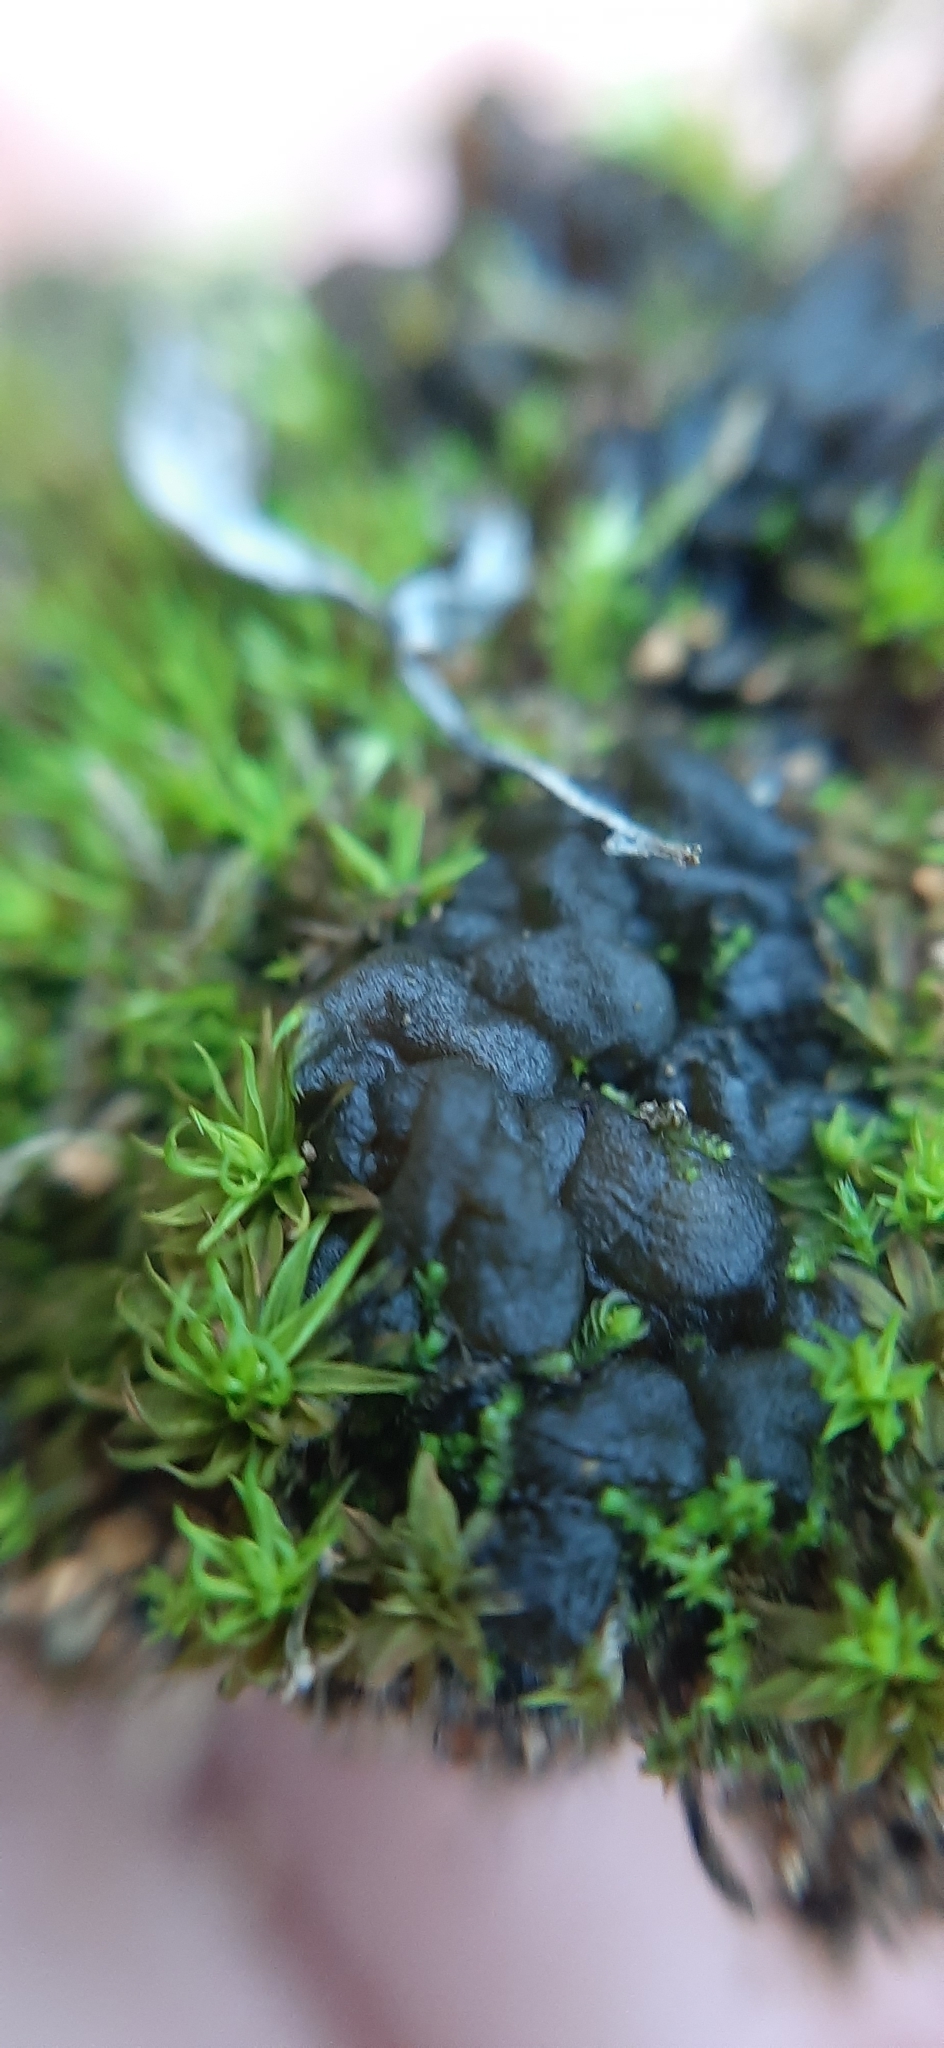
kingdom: Bacteria
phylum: Cyanobacteria
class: Cyanobacteriia
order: Cyanobacteriales
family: Nostocaceae
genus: Nostoc
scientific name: Nostoc commune
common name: Star jelly
